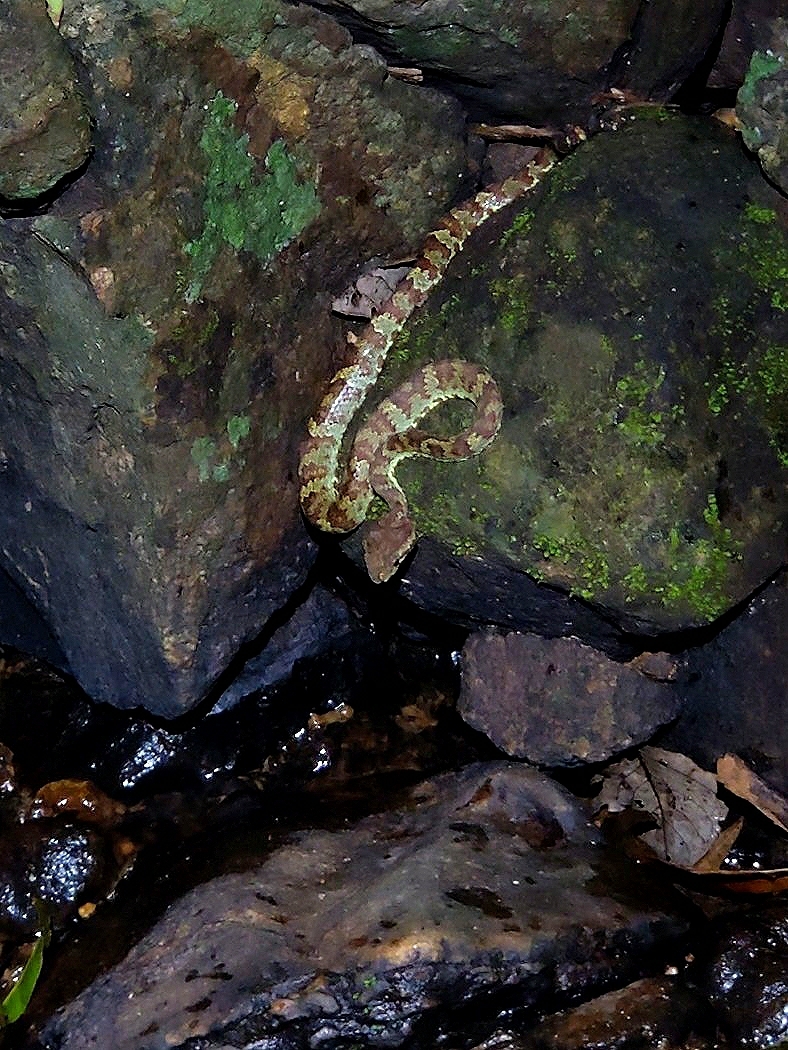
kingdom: Animalia
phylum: Chordata
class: Squamata
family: Viperidae
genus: Craspedocephalus
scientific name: Craspedocephalus malabaricus
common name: Malabarian pit viper
